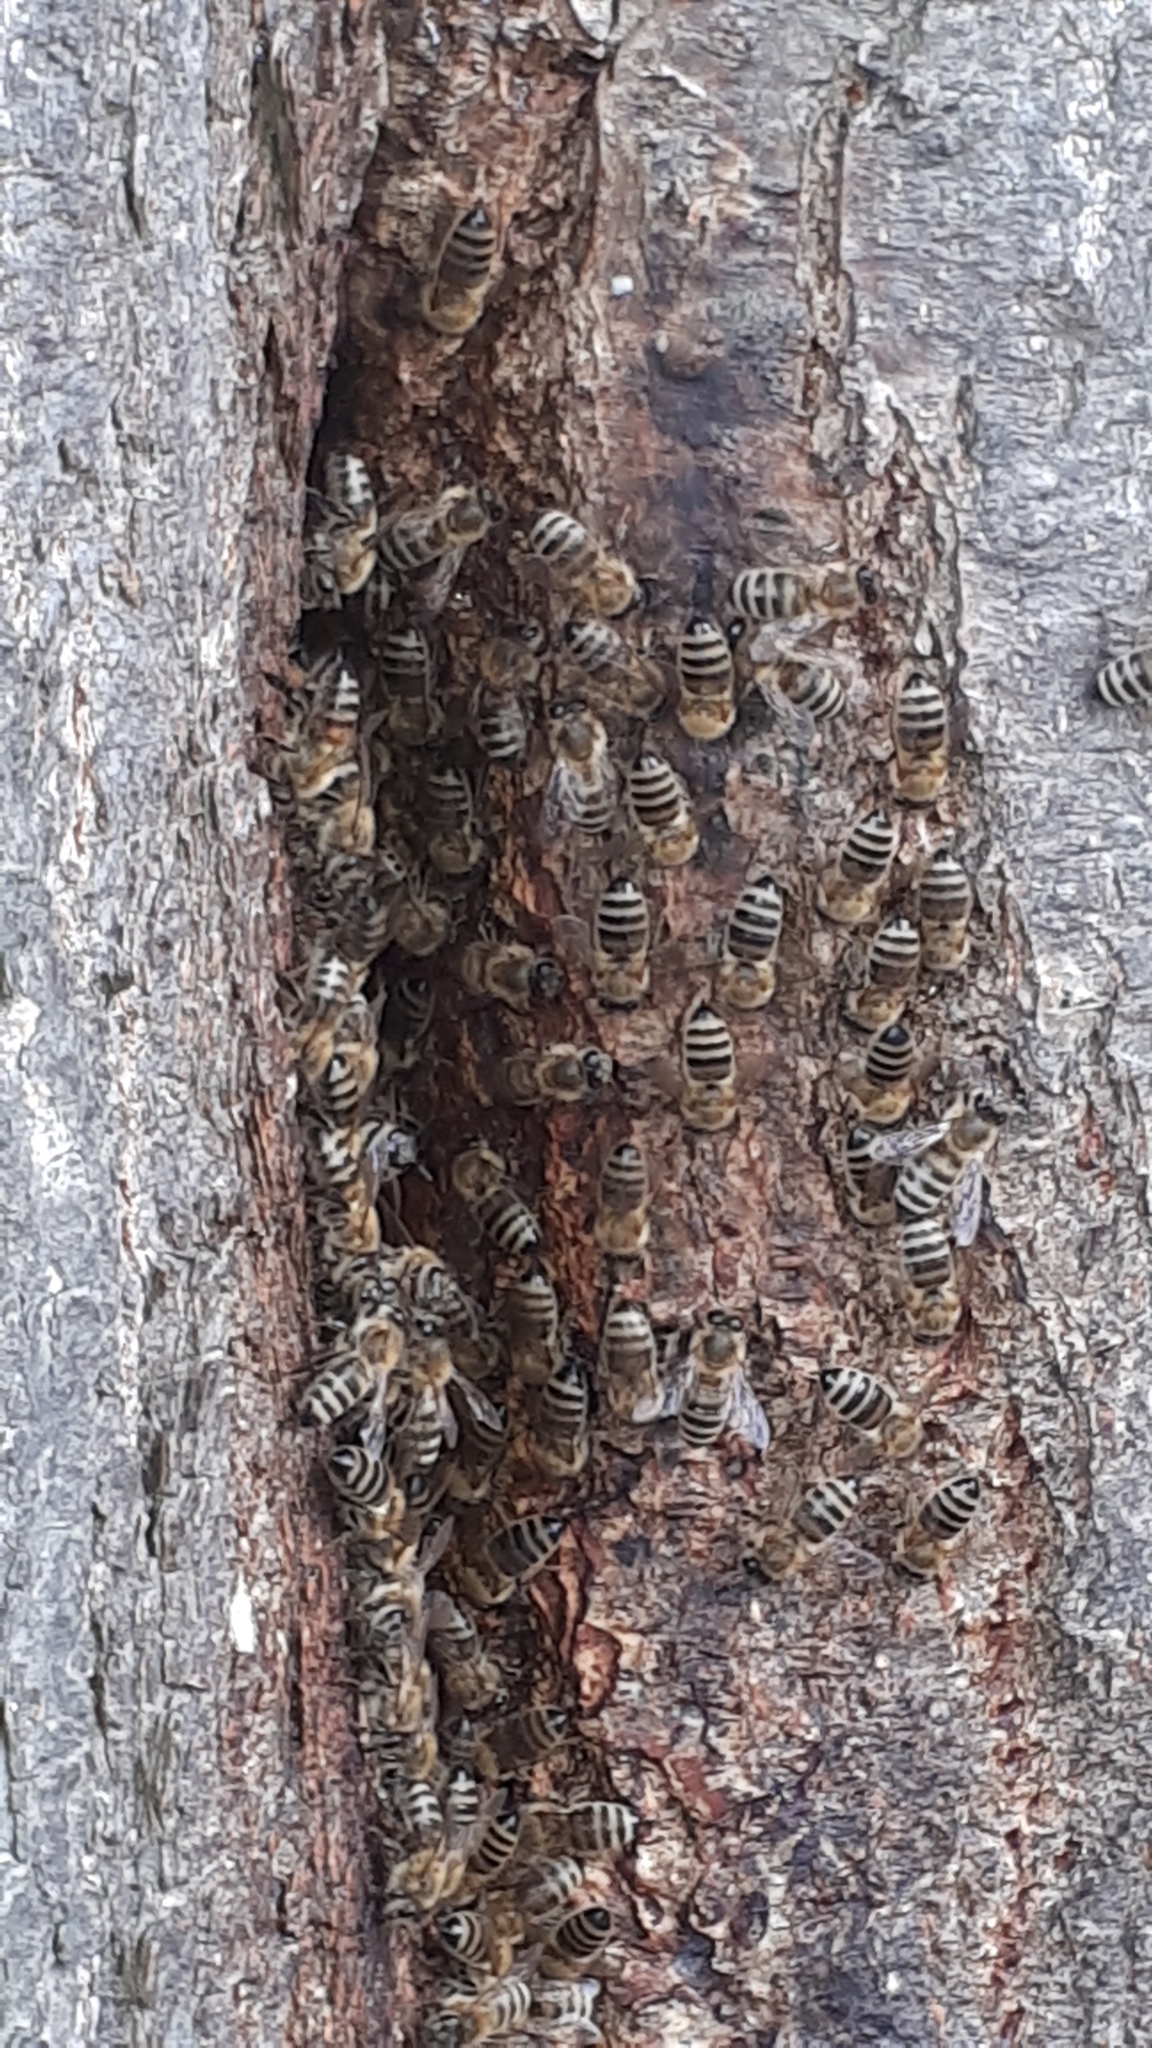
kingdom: Animalia
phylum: Arthropoda
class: Insecta
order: Hymenoptera
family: Apidae
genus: Apis
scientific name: Apis mellifera
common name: Honey bee
